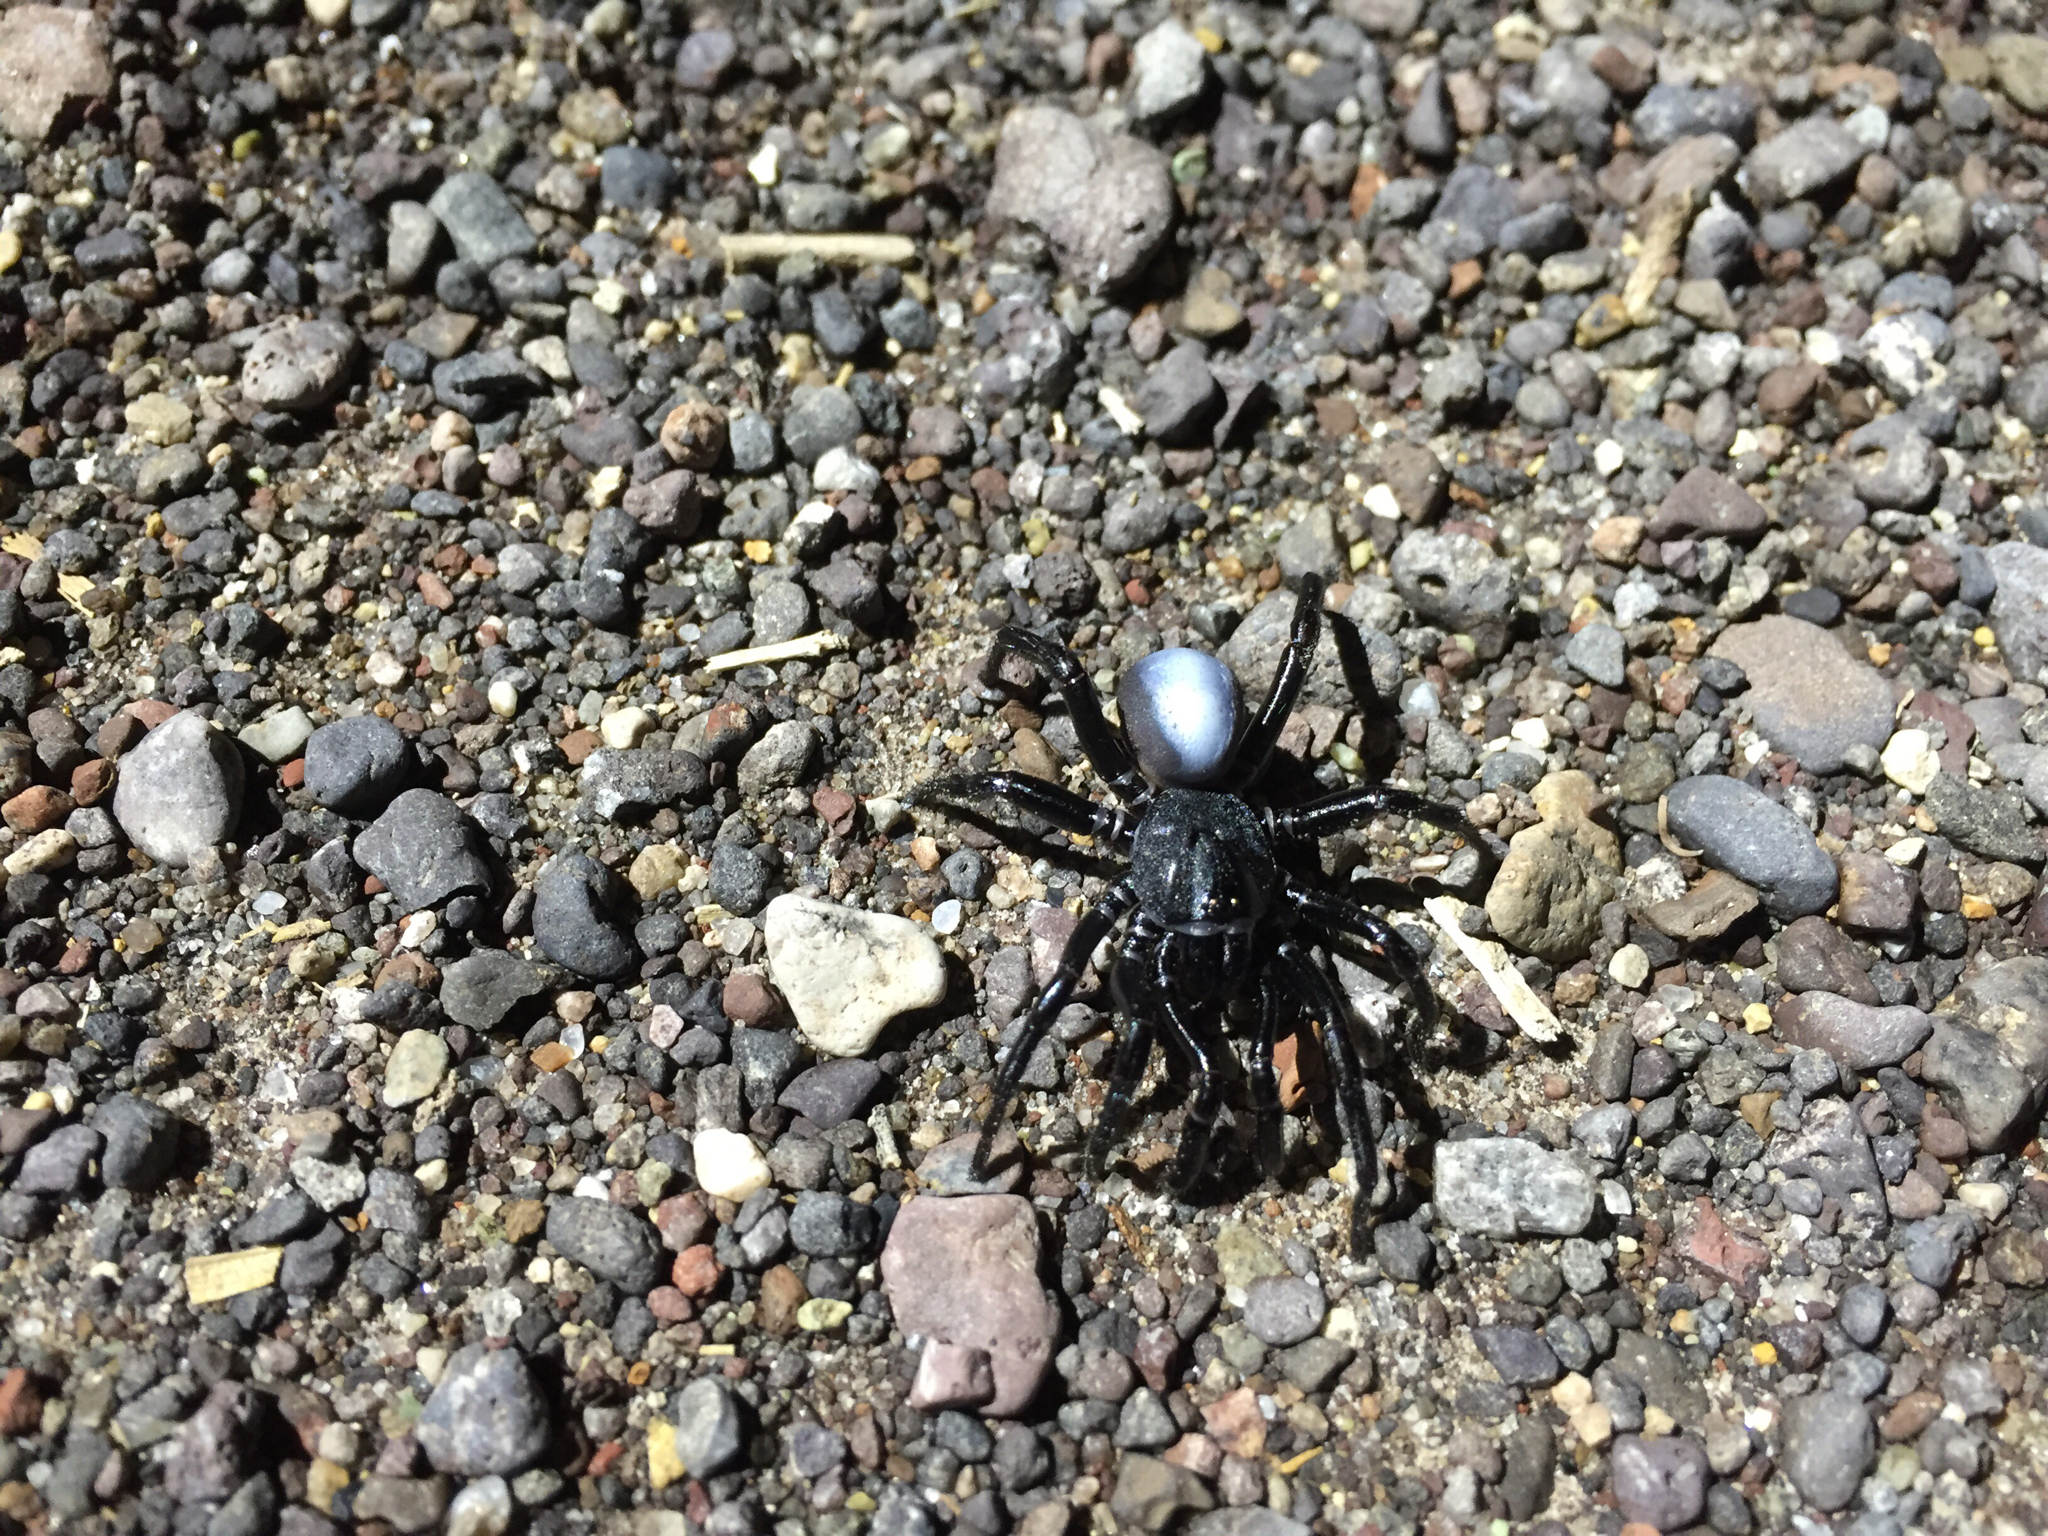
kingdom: Animalia
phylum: Arthropoda
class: Arachnida
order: Araneae
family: Halonoproctidae
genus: Ummidia
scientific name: Ummidia rosillos
